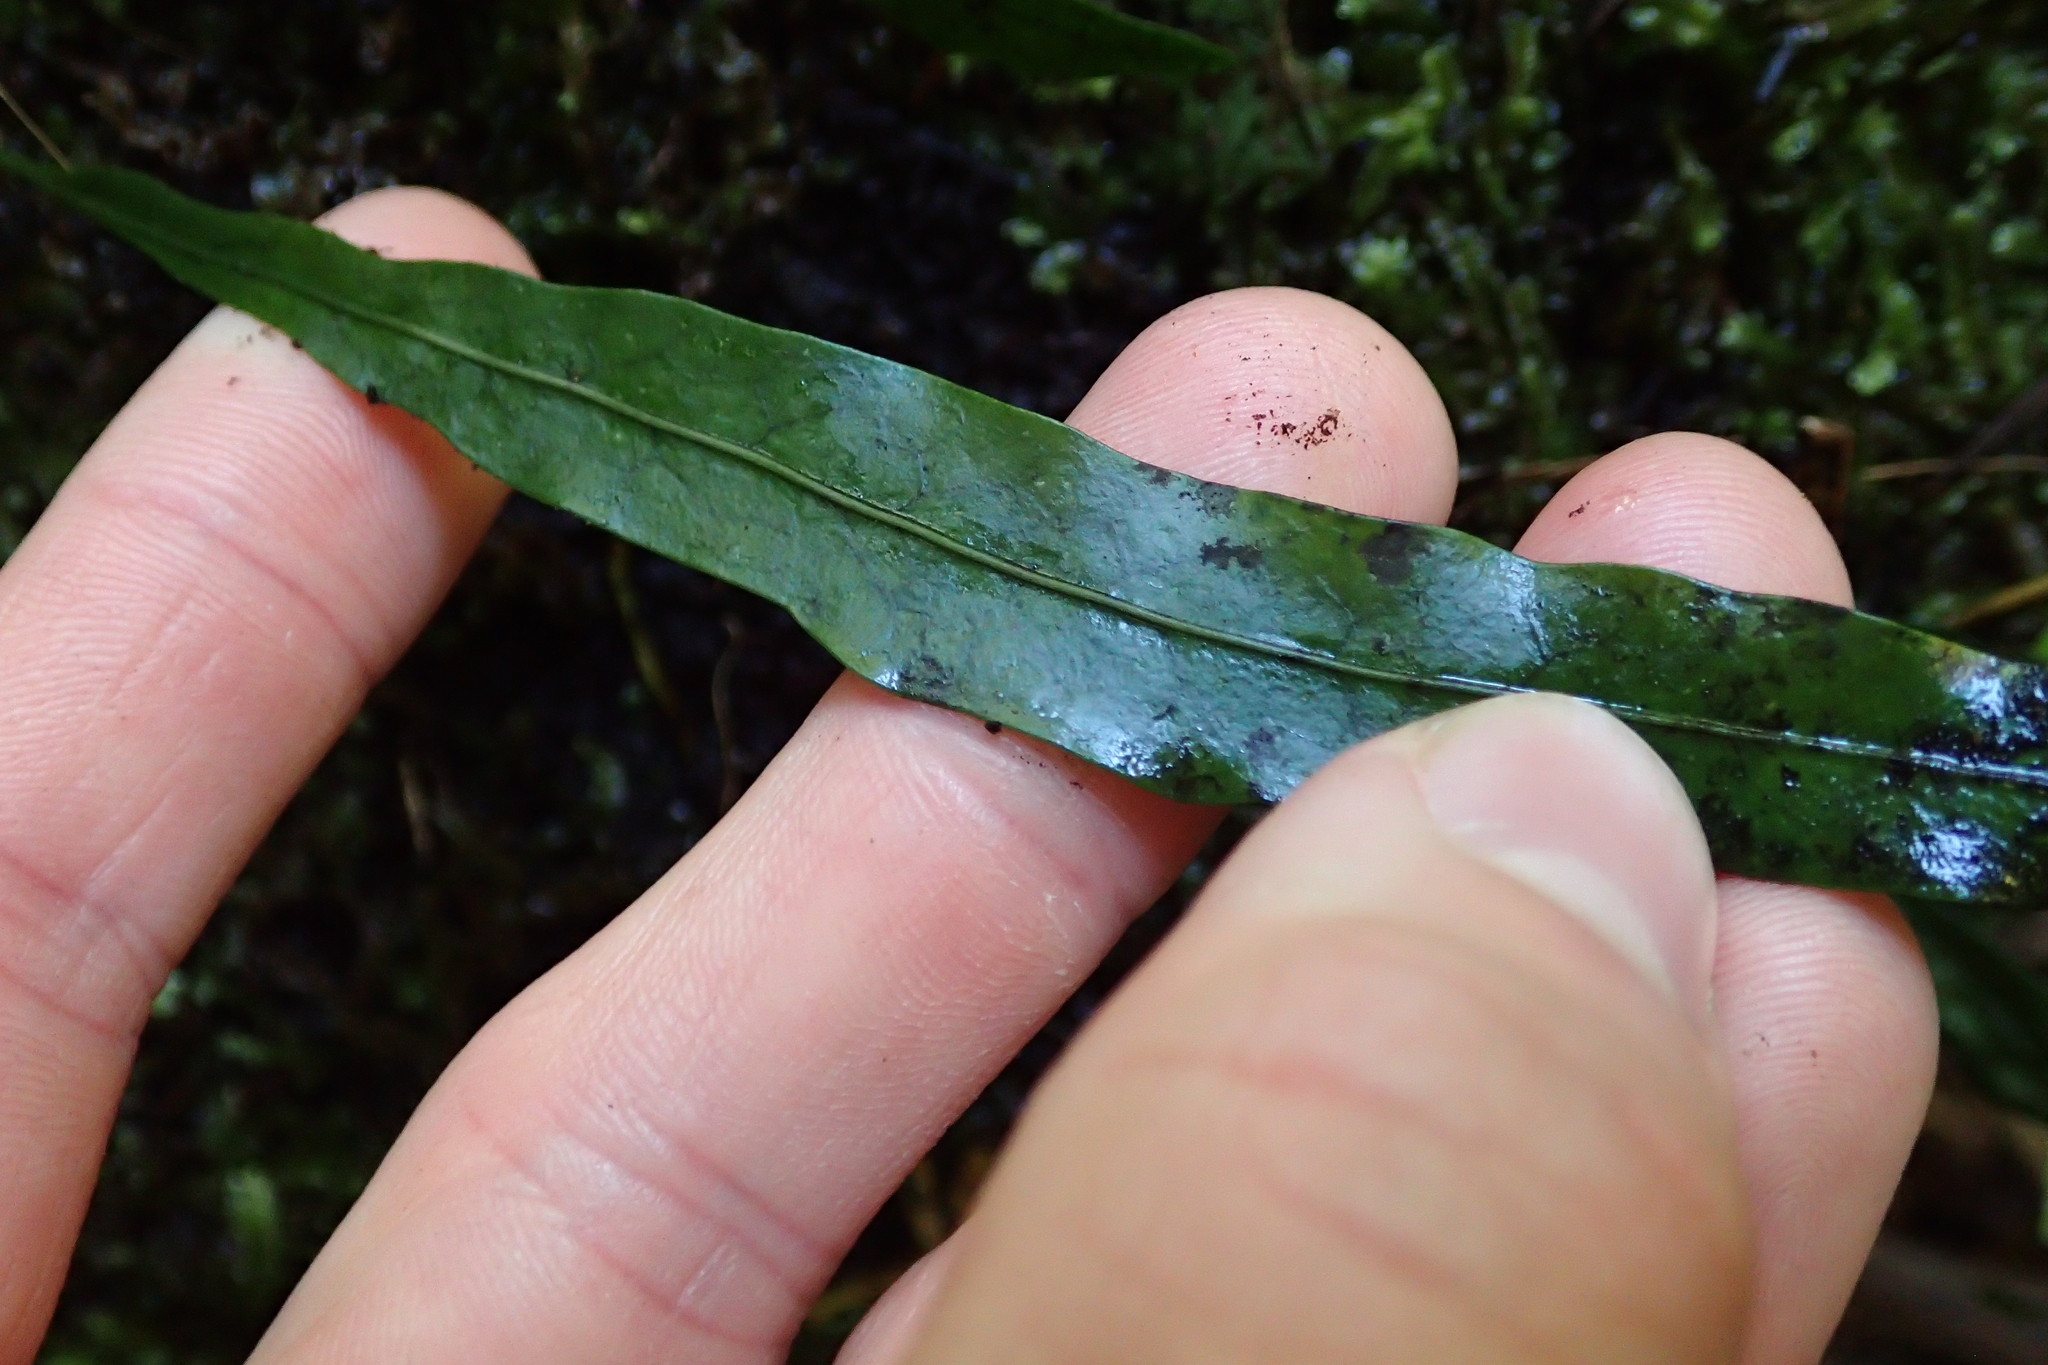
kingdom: Plantae
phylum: Tracheophyta
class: Polypodiopsida
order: Polypodiales
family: Polypodiaceae
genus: Lecanopteris
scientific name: Lecanopteris scandens
